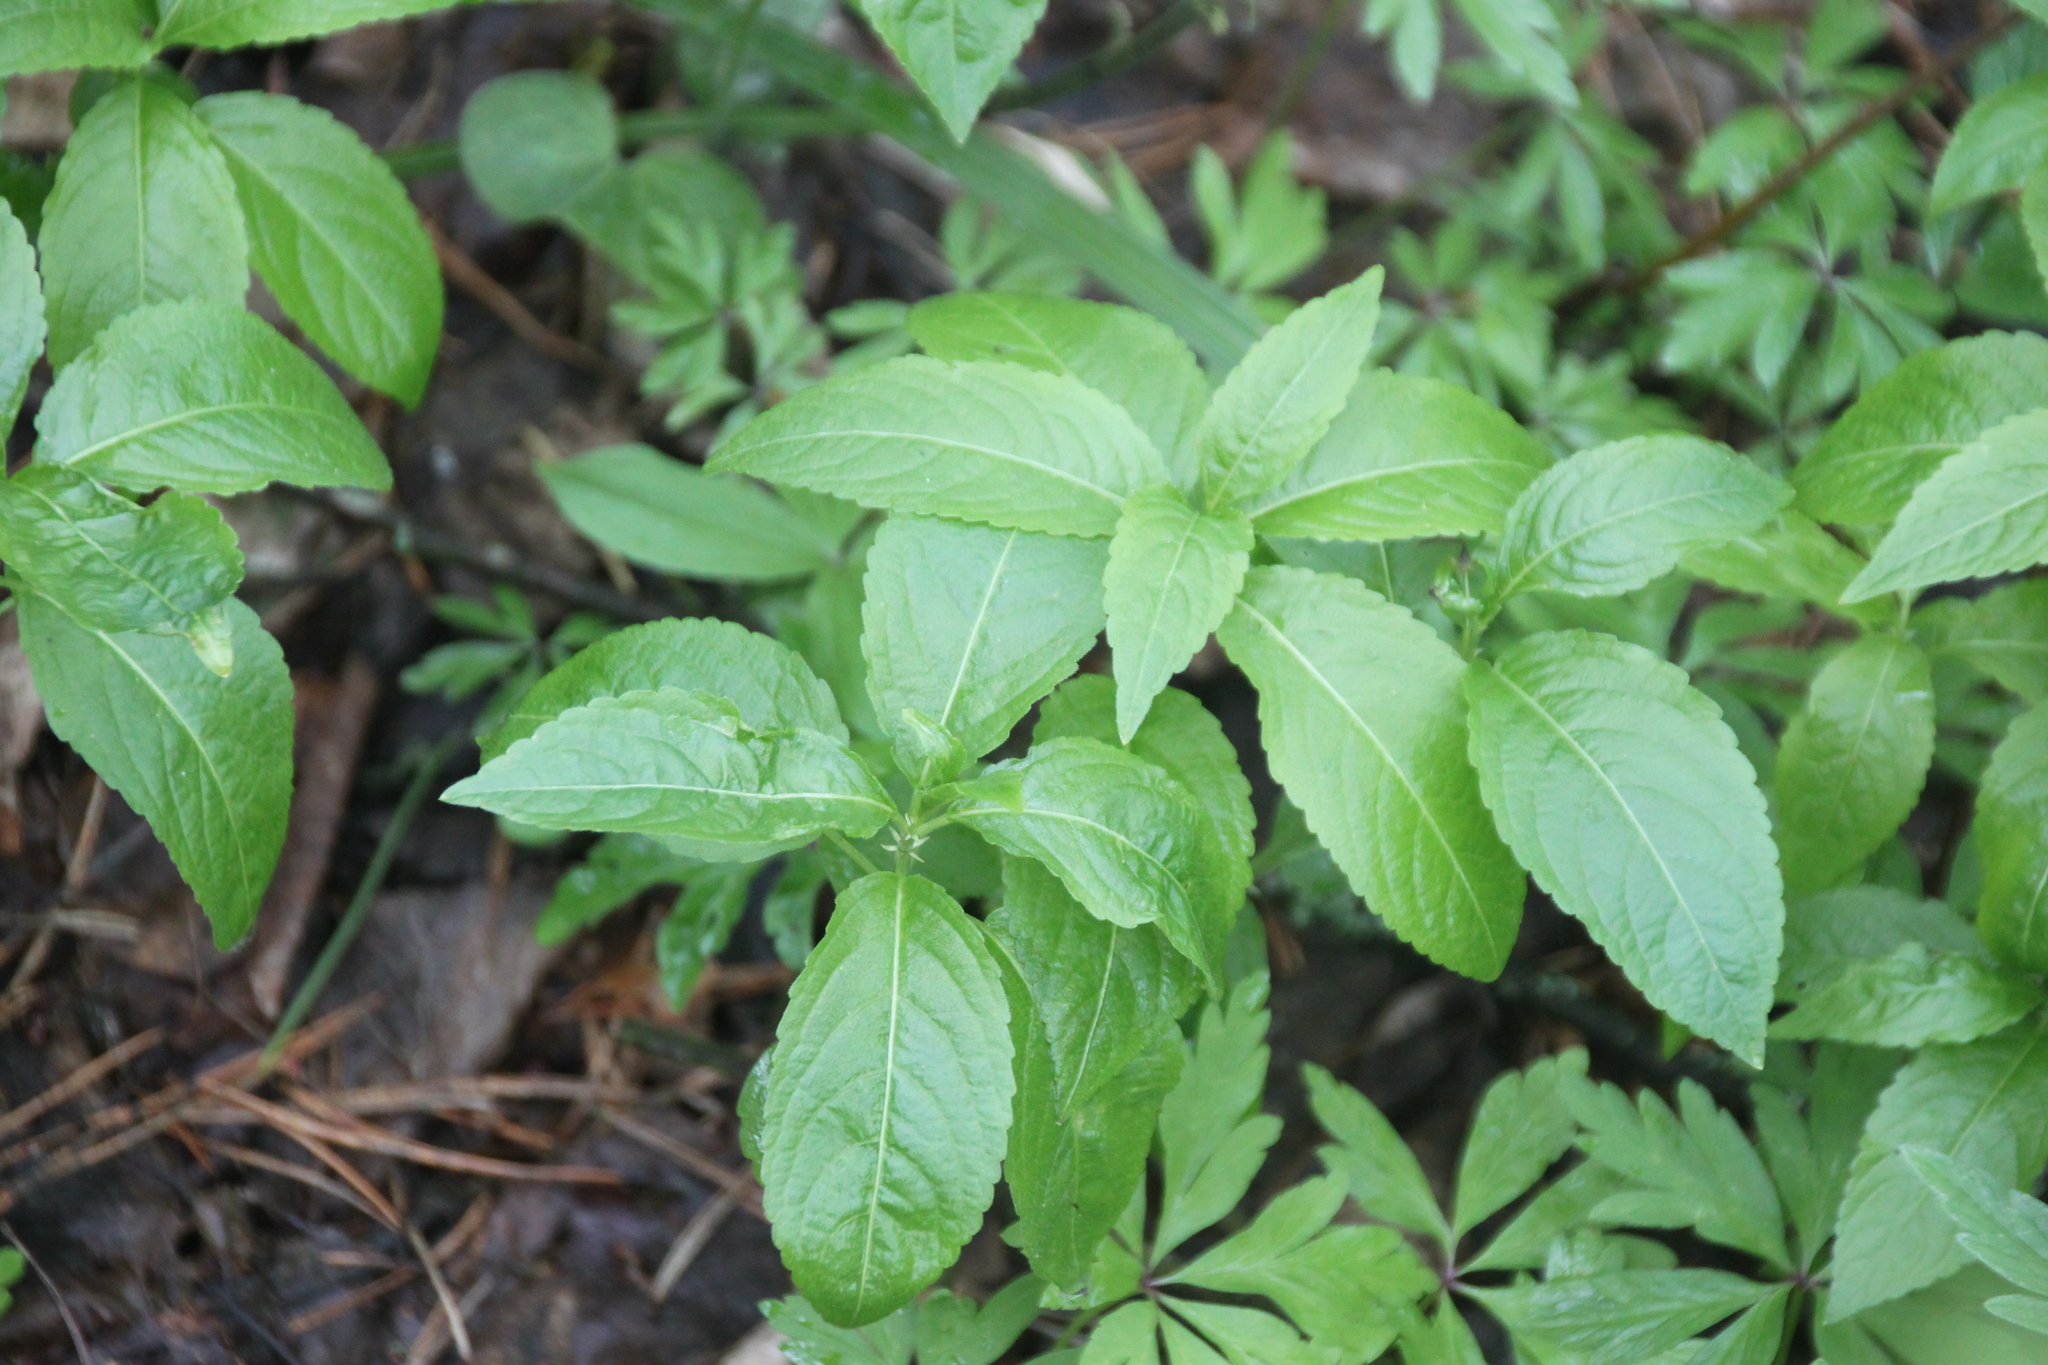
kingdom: Plantae
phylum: Tracheophyta
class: Magnoliopsida
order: Malpighiales
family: Euphorbiaceae
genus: Mercurialis
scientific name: Mercurialis perennis
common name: Dog mercury
